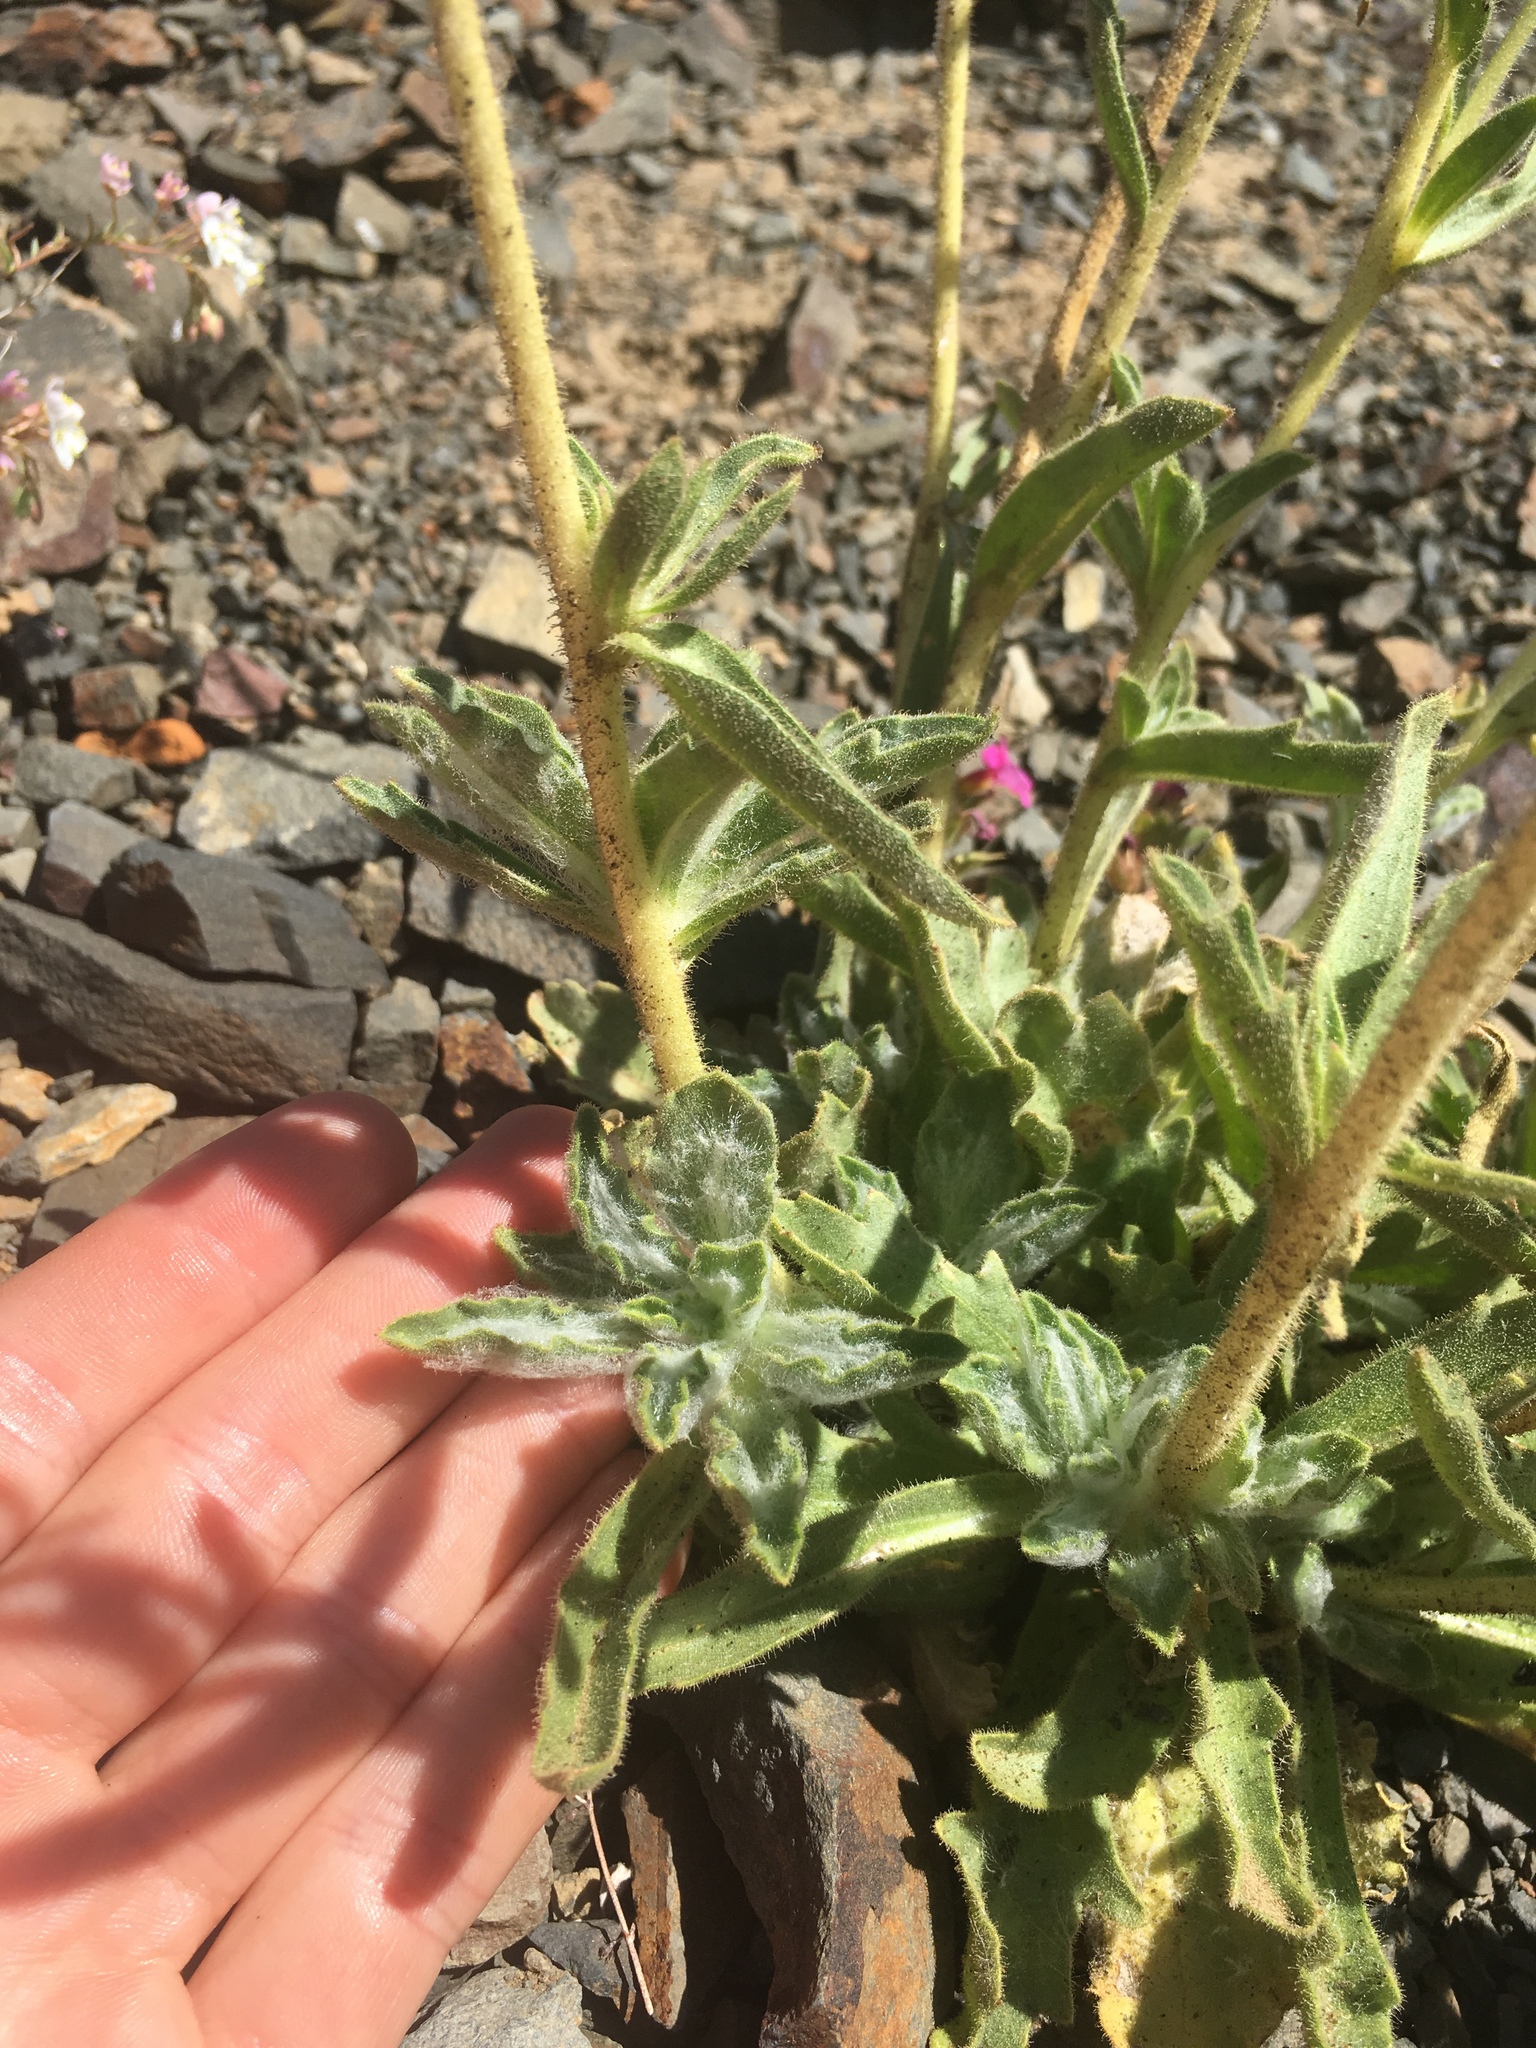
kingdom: Plantae
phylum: Tracheophyta
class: Magnoliopsida
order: Asterales
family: Asteraceae
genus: Hulsea
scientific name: Hulsea vestita
